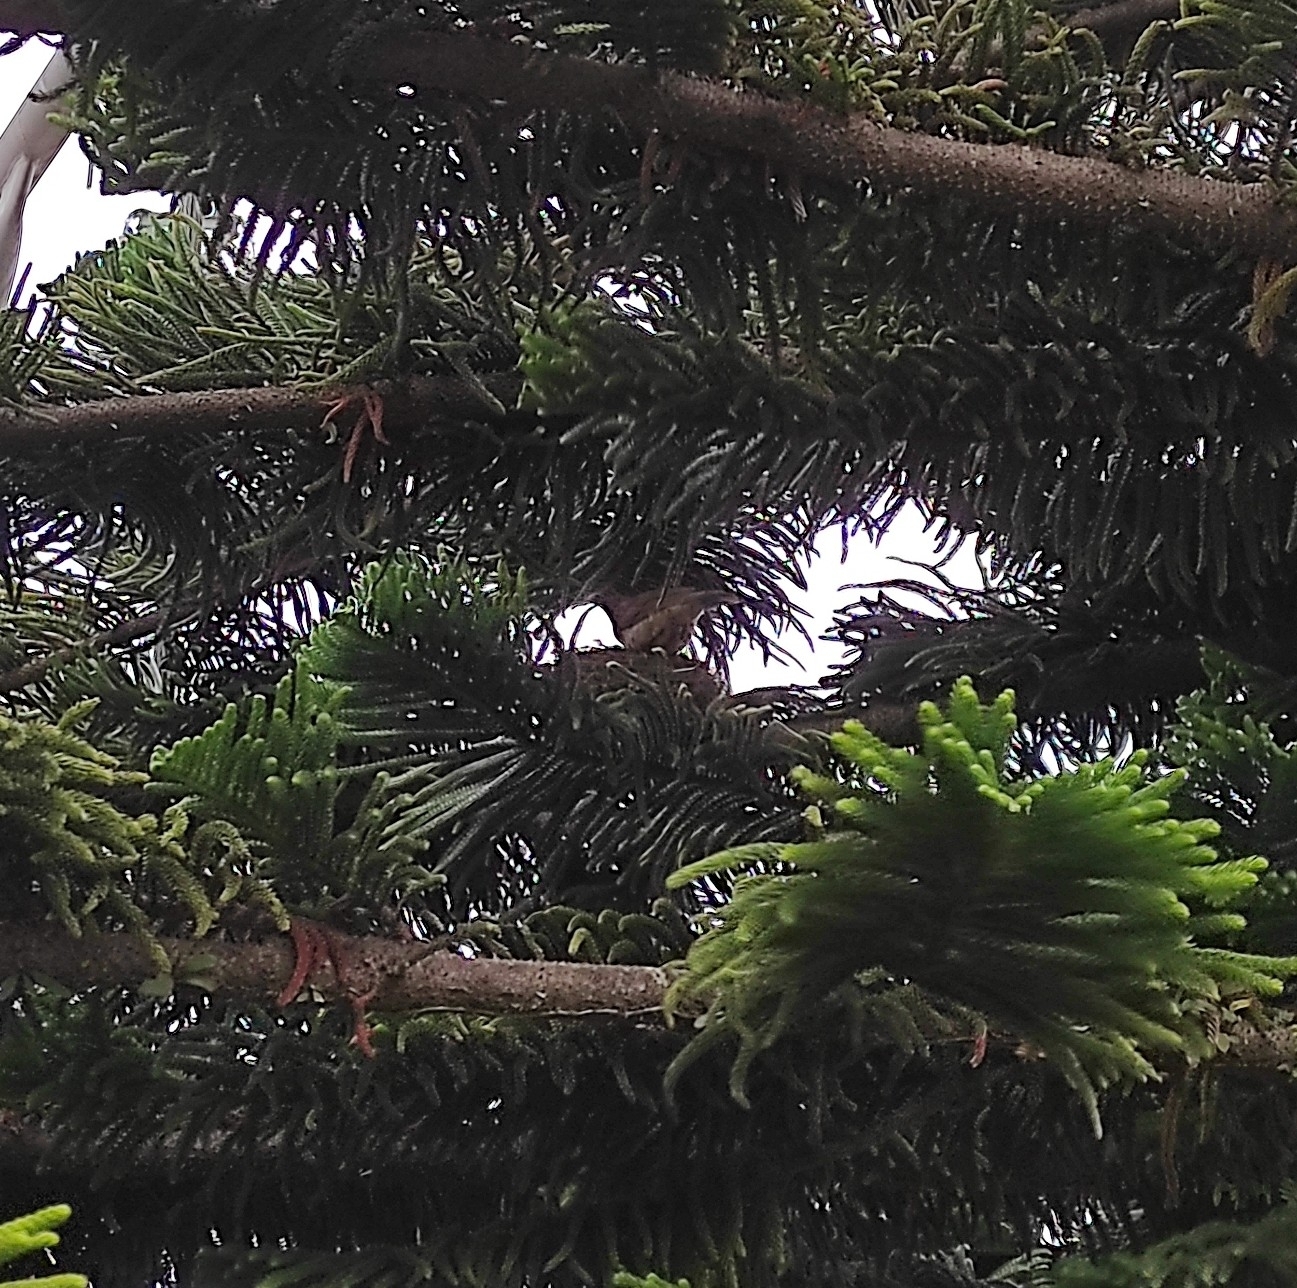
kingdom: Animalia
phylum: Chordata
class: Aves
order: Passeriformes
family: Turdidae
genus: Turdus
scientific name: Turdus grayi
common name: Clay-colored thrush
